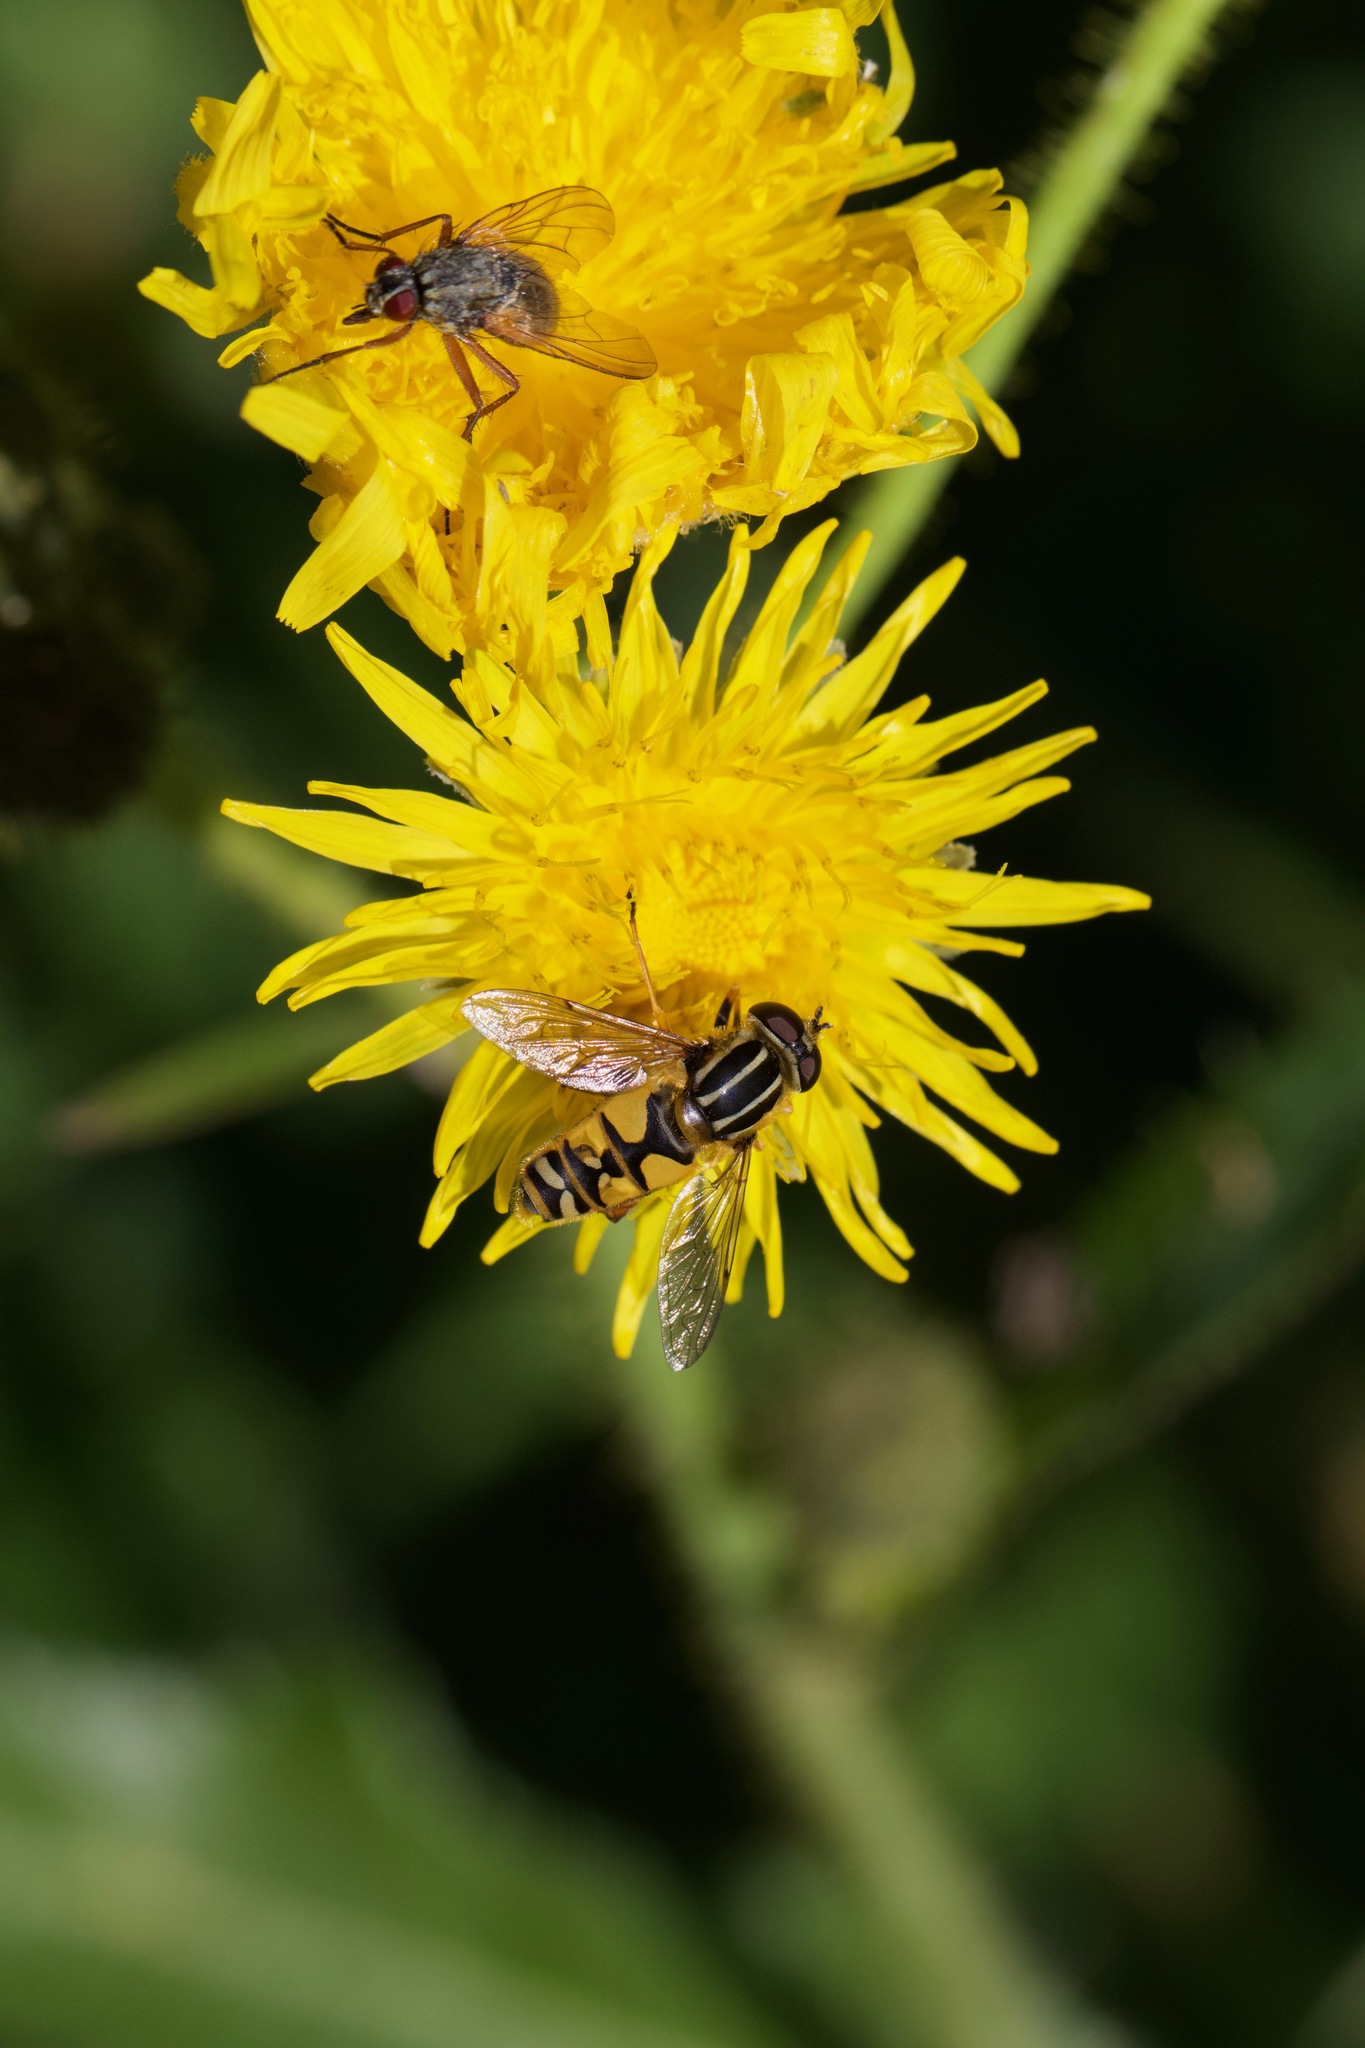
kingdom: Animalia
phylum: Arthropoda
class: Insecta
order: Diptera
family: Syrphidae
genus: Helophilus
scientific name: Helophilus pendulus
